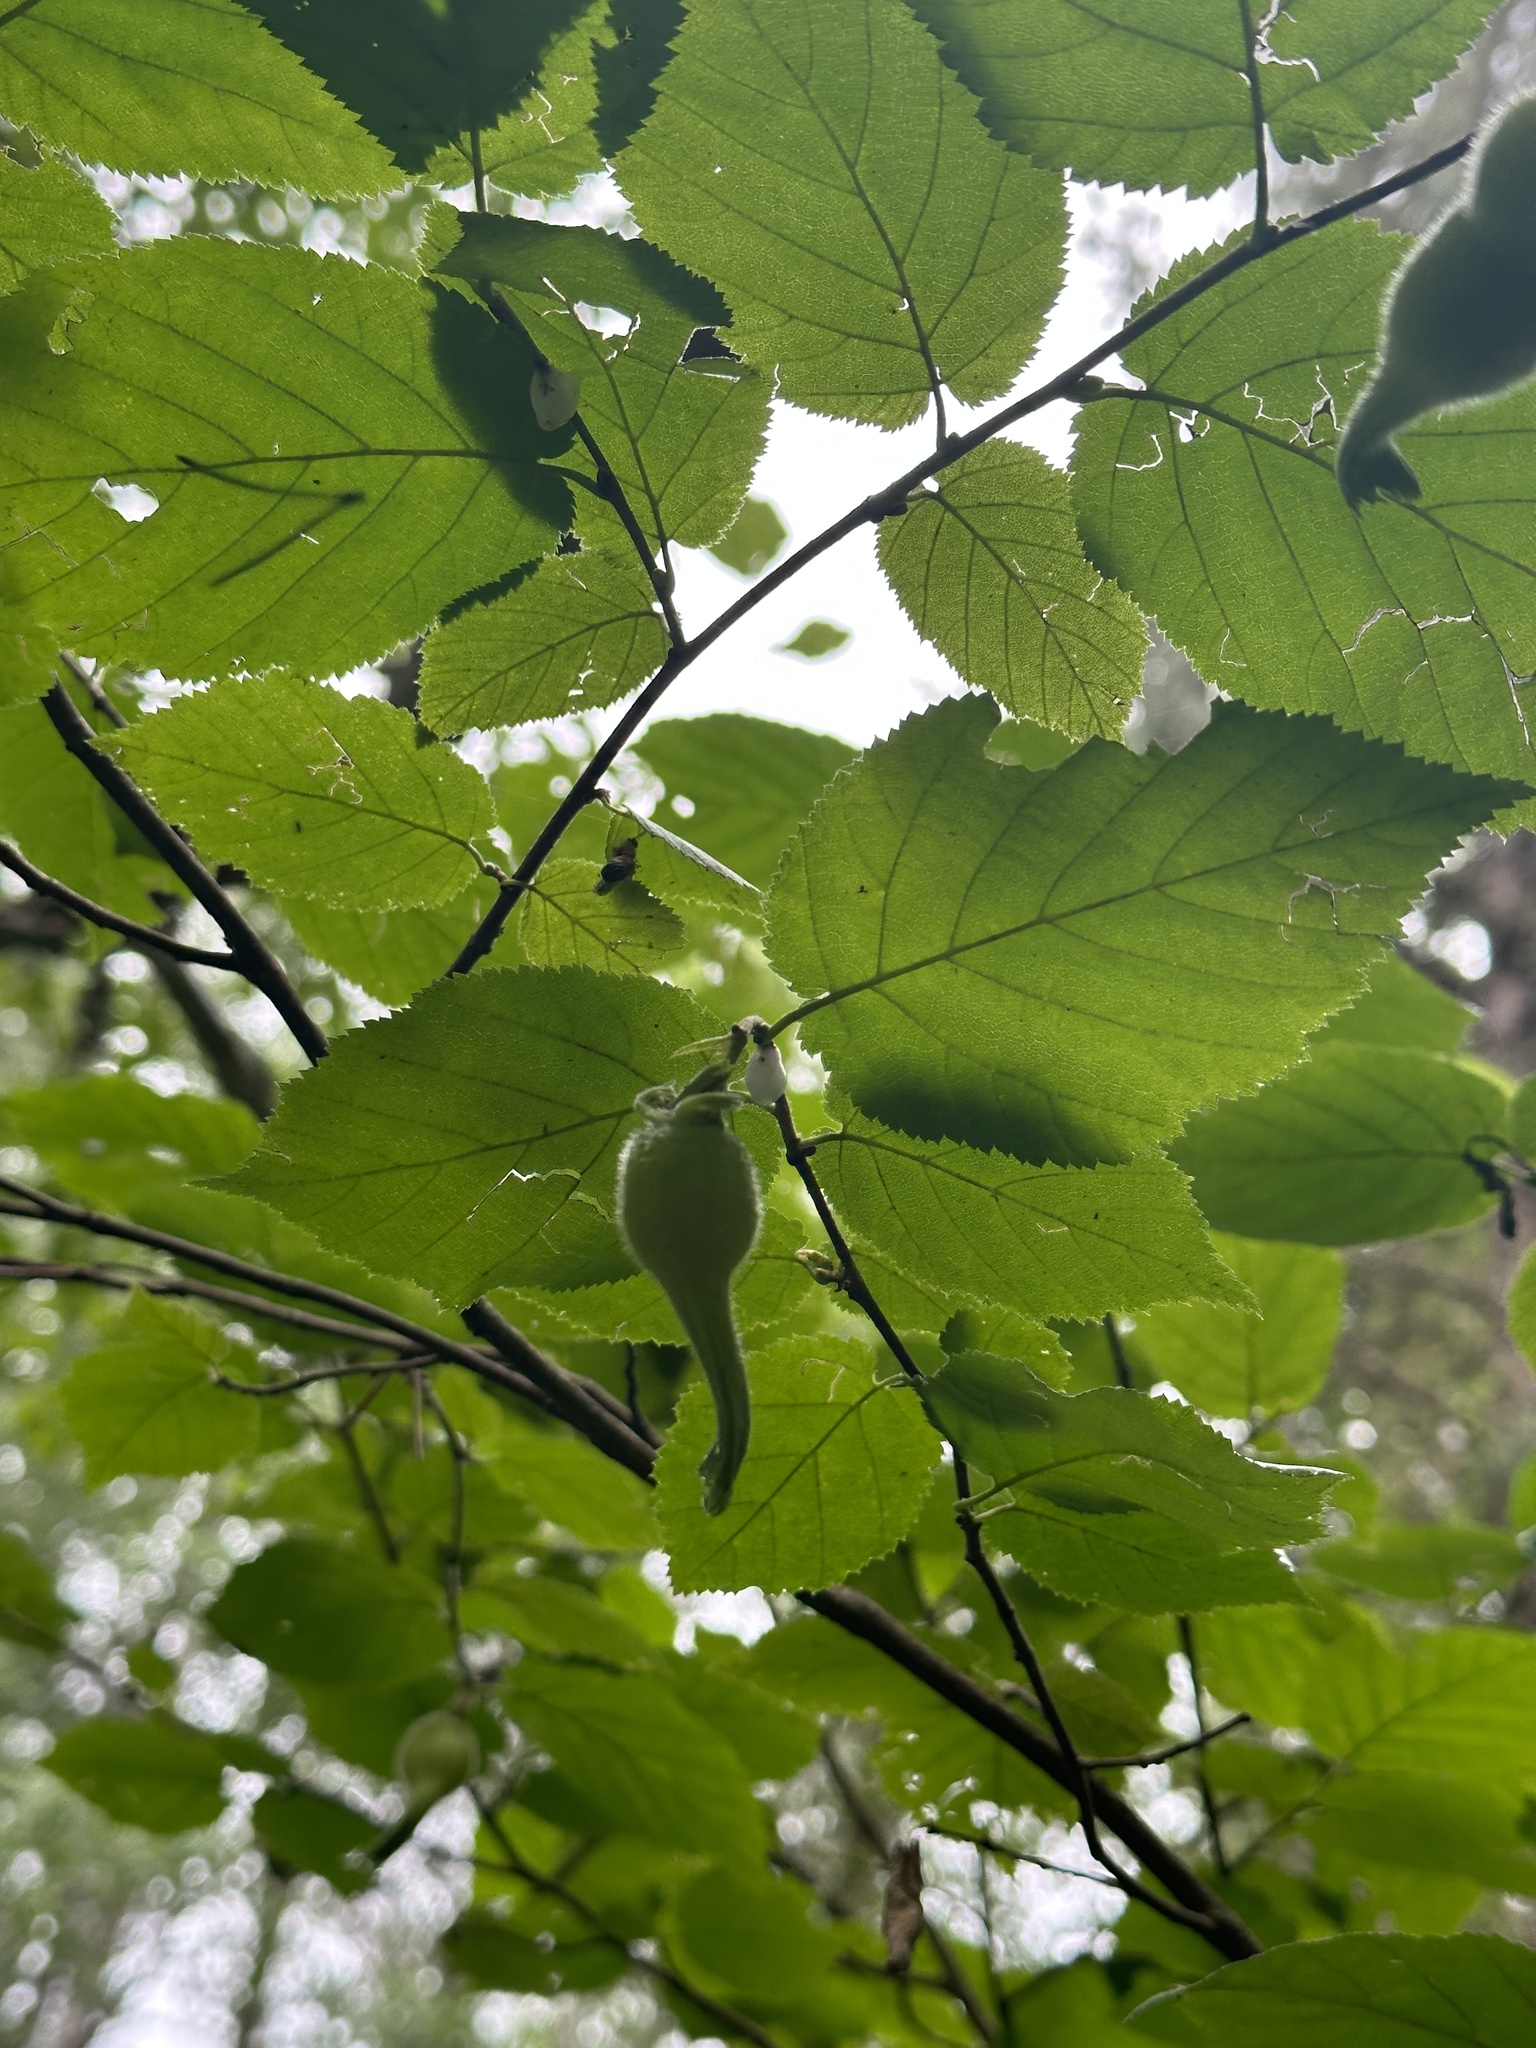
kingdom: Plantae
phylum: Tracheophyta
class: Magnoliopsida
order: Fagales
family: Betulaceae
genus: Corylus
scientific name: Corylus cornuta
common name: Beaked hazel
